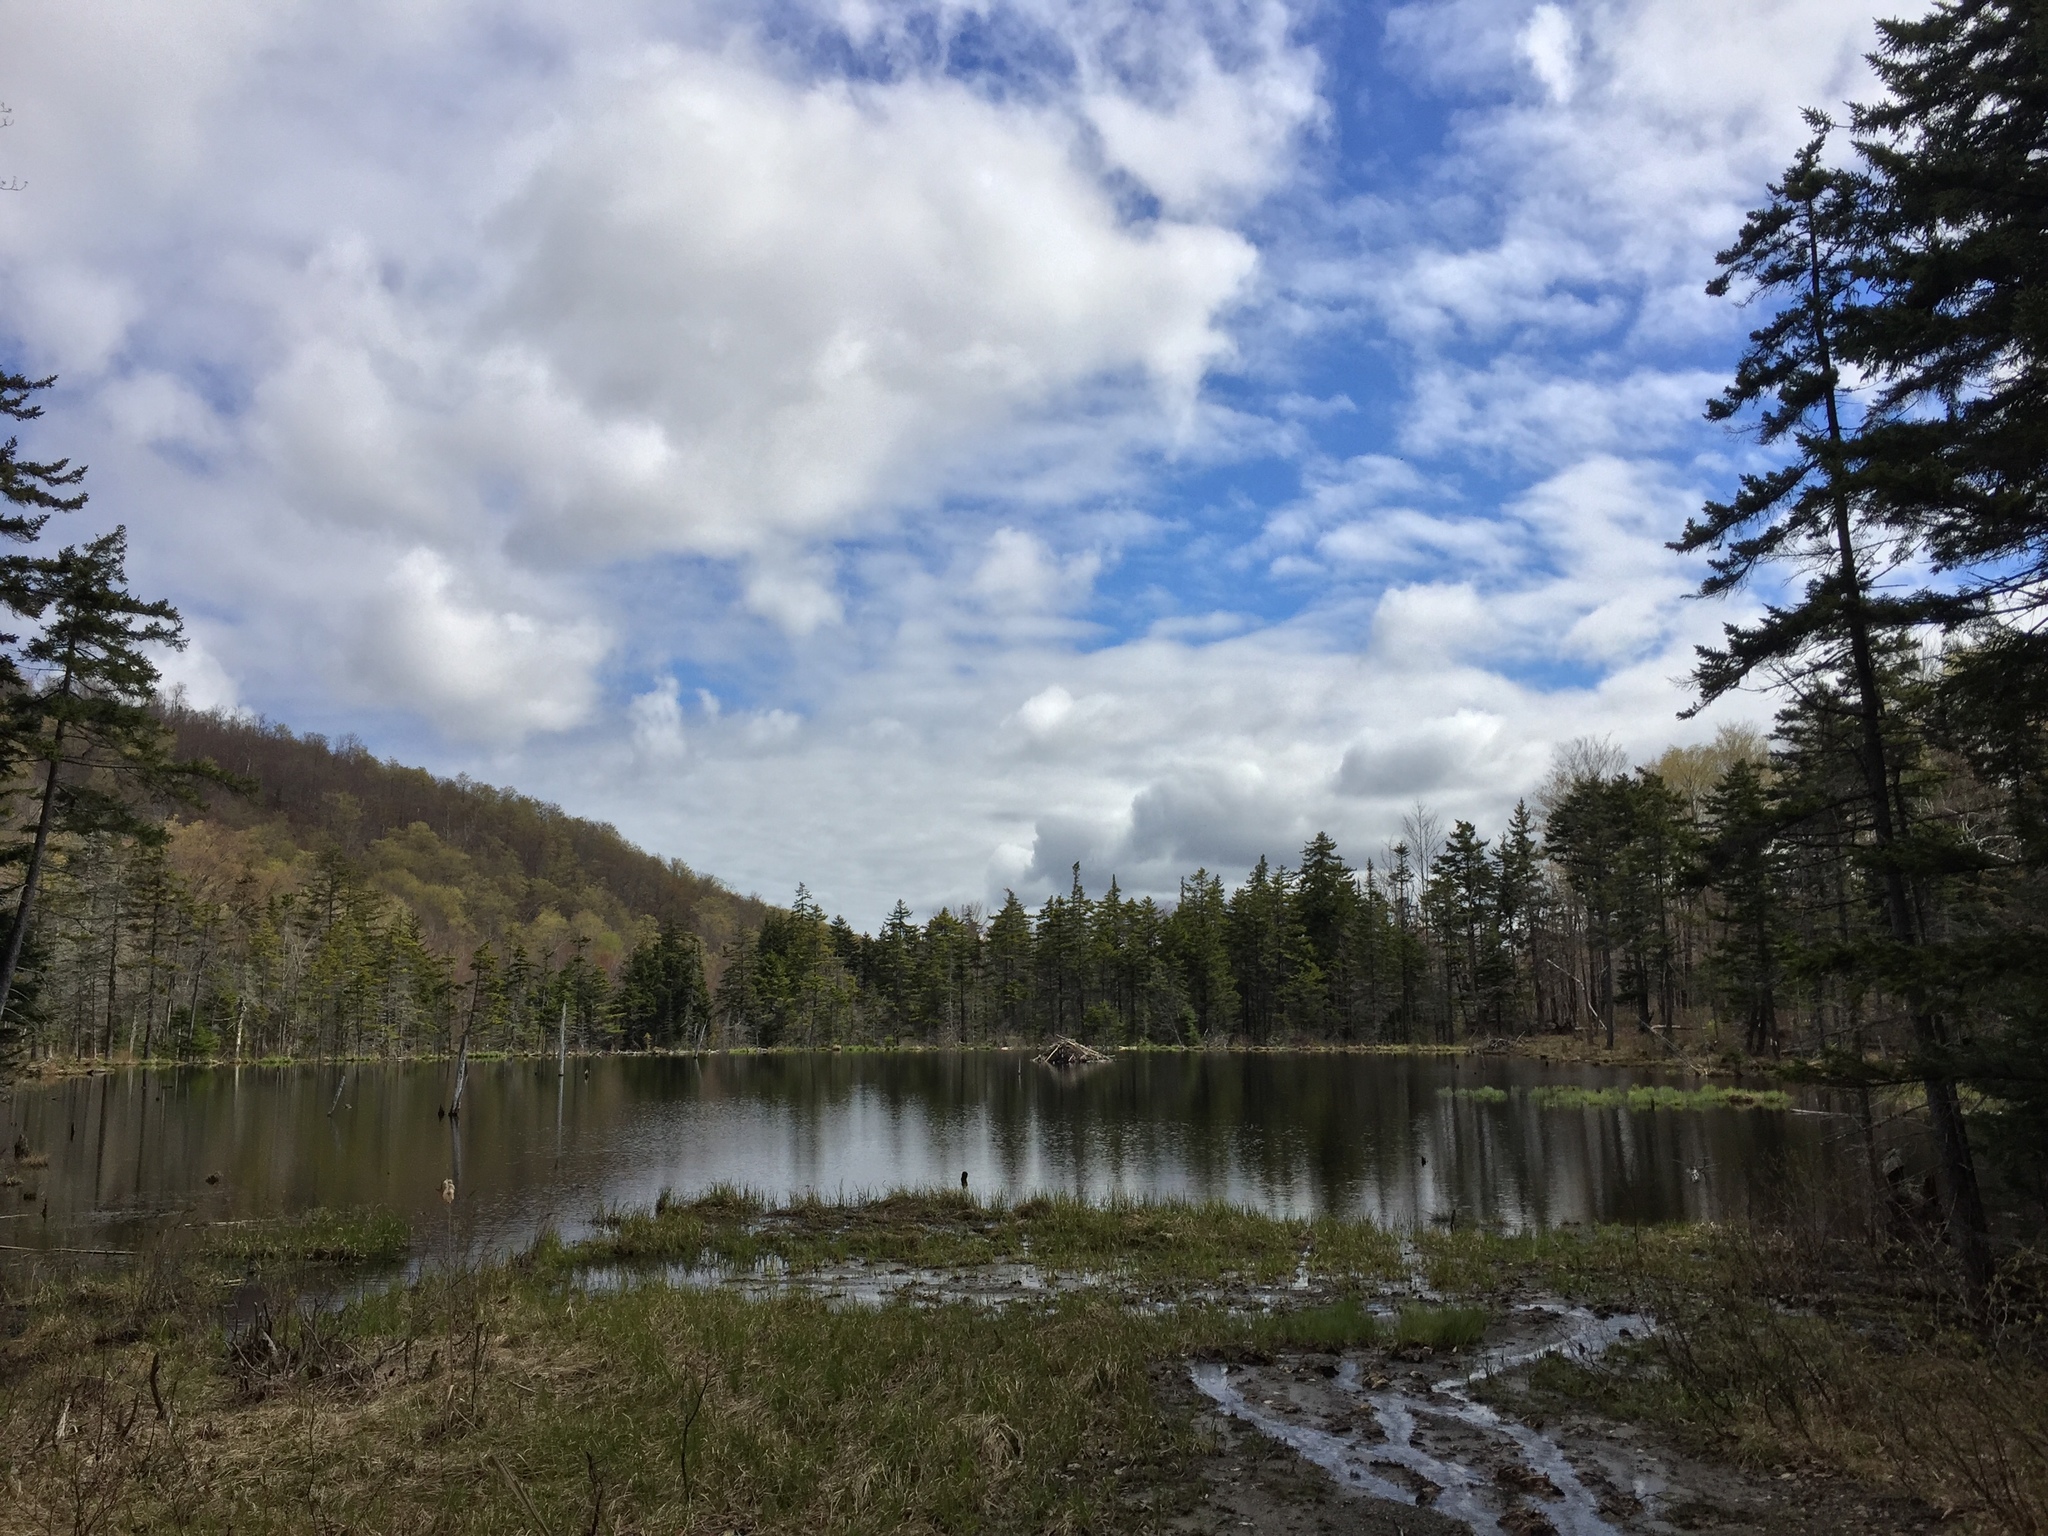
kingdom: Animalia
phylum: Chordata
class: Mammalia
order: Rodentia
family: Castoridae
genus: Castor
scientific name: Castor canadensis
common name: American beaver
